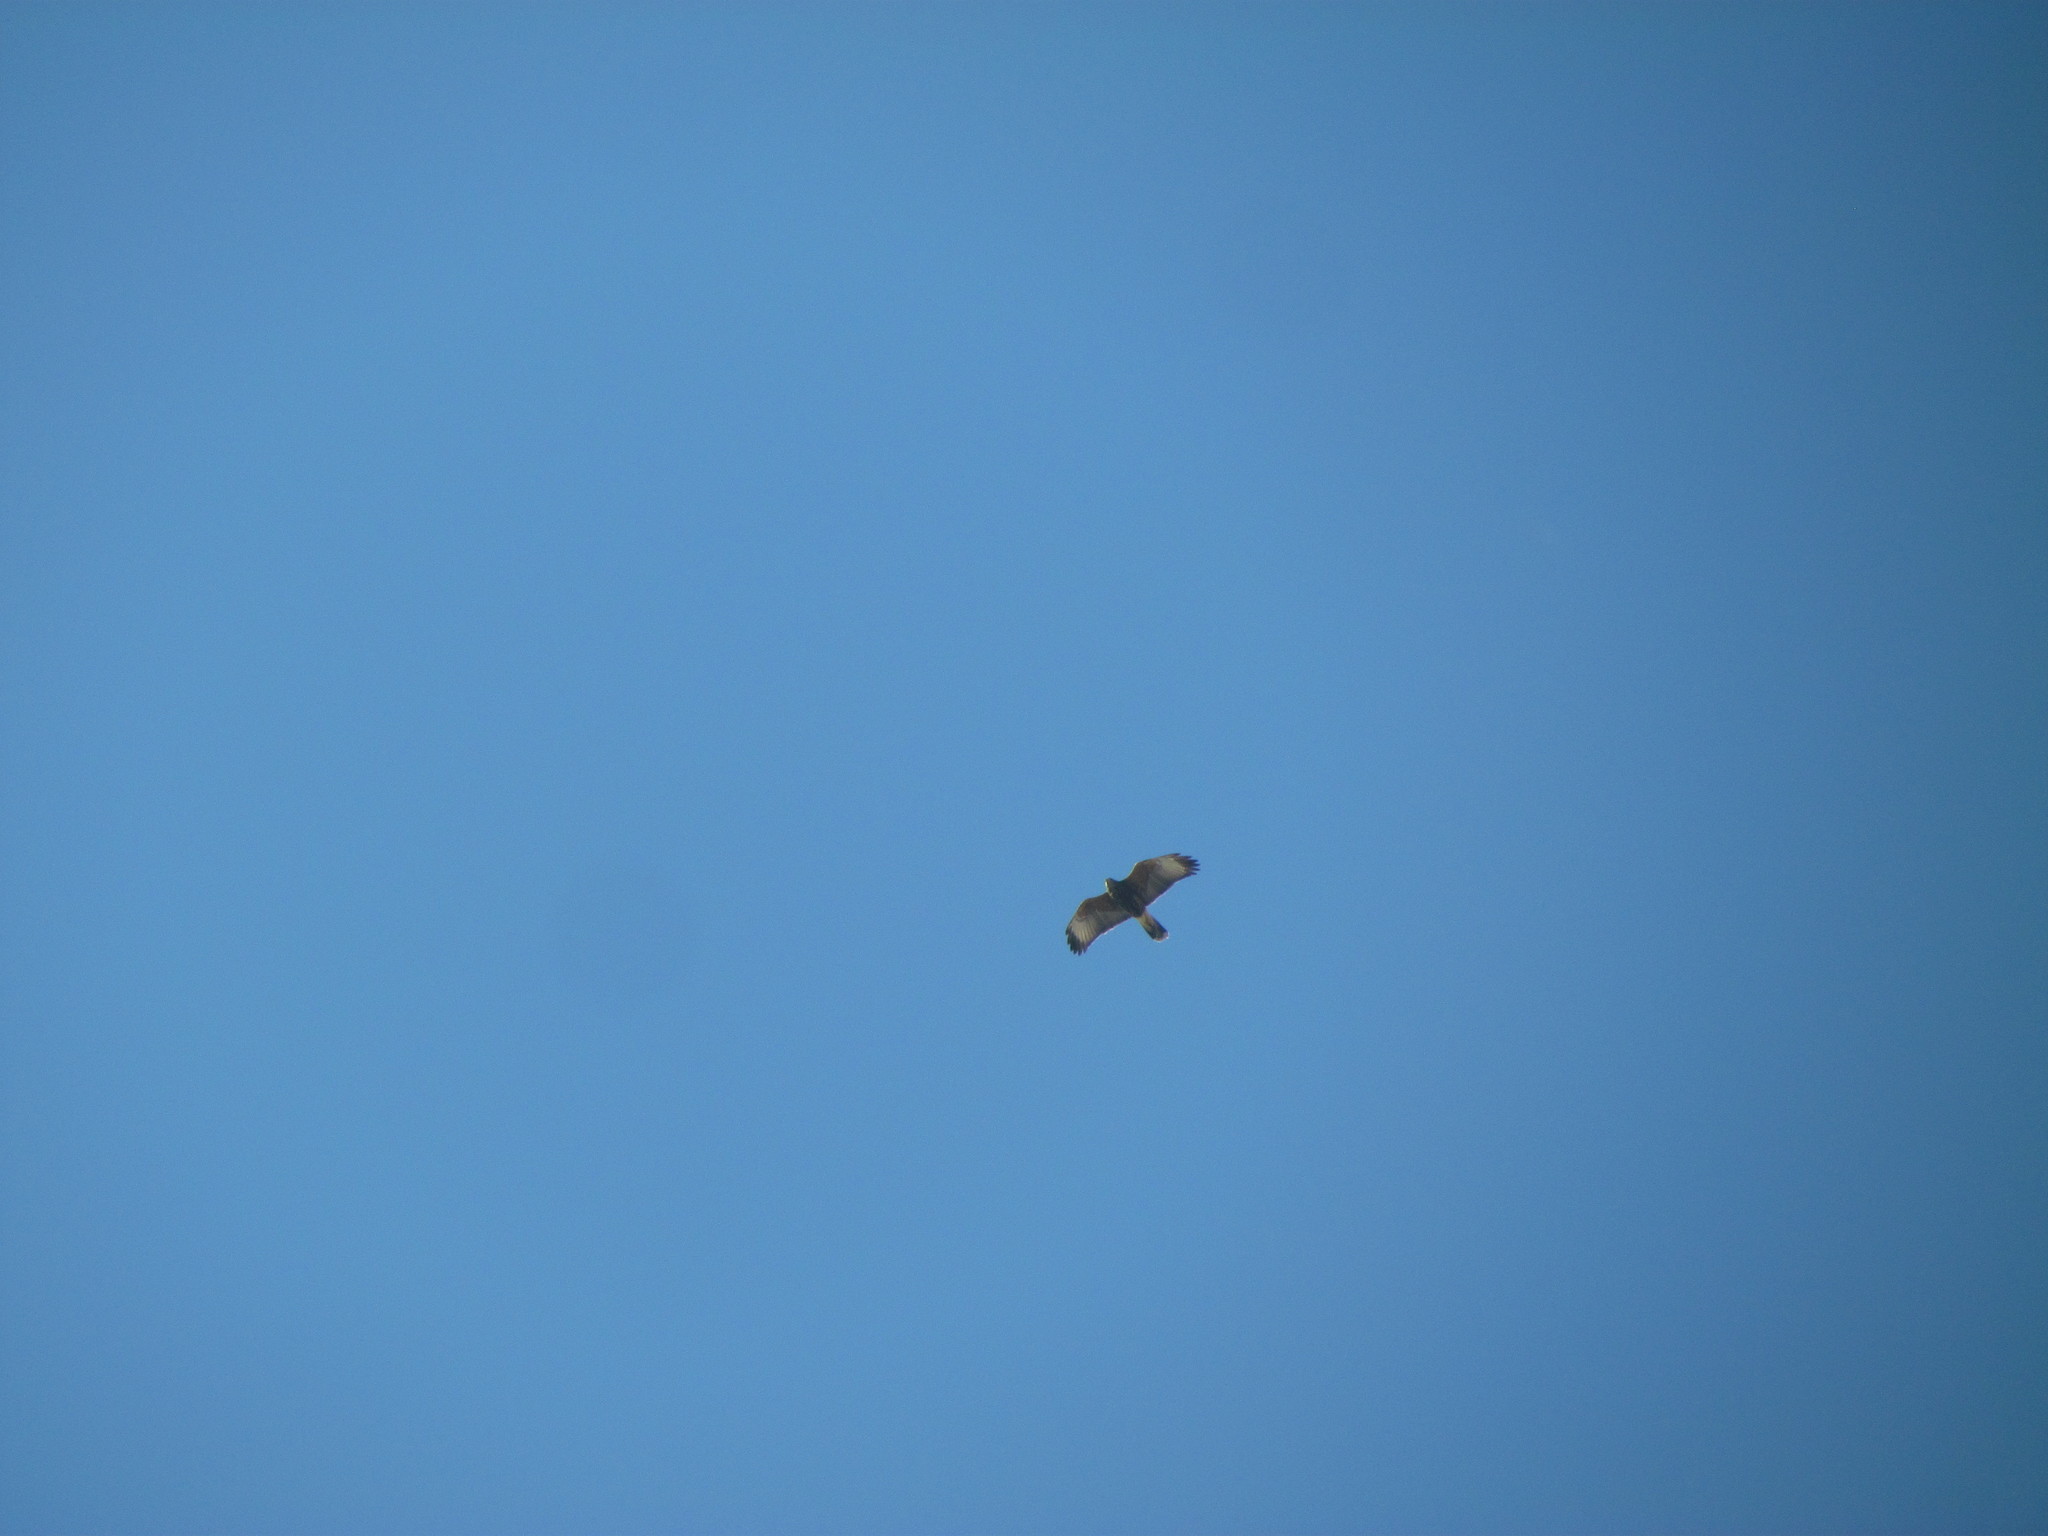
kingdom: Animalia
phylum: Chordata
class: Aves
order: Accipitriformes
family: Accipitridae
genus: Parabuteo
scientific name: Parabuteo unicinctus
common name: Harris's hawk
